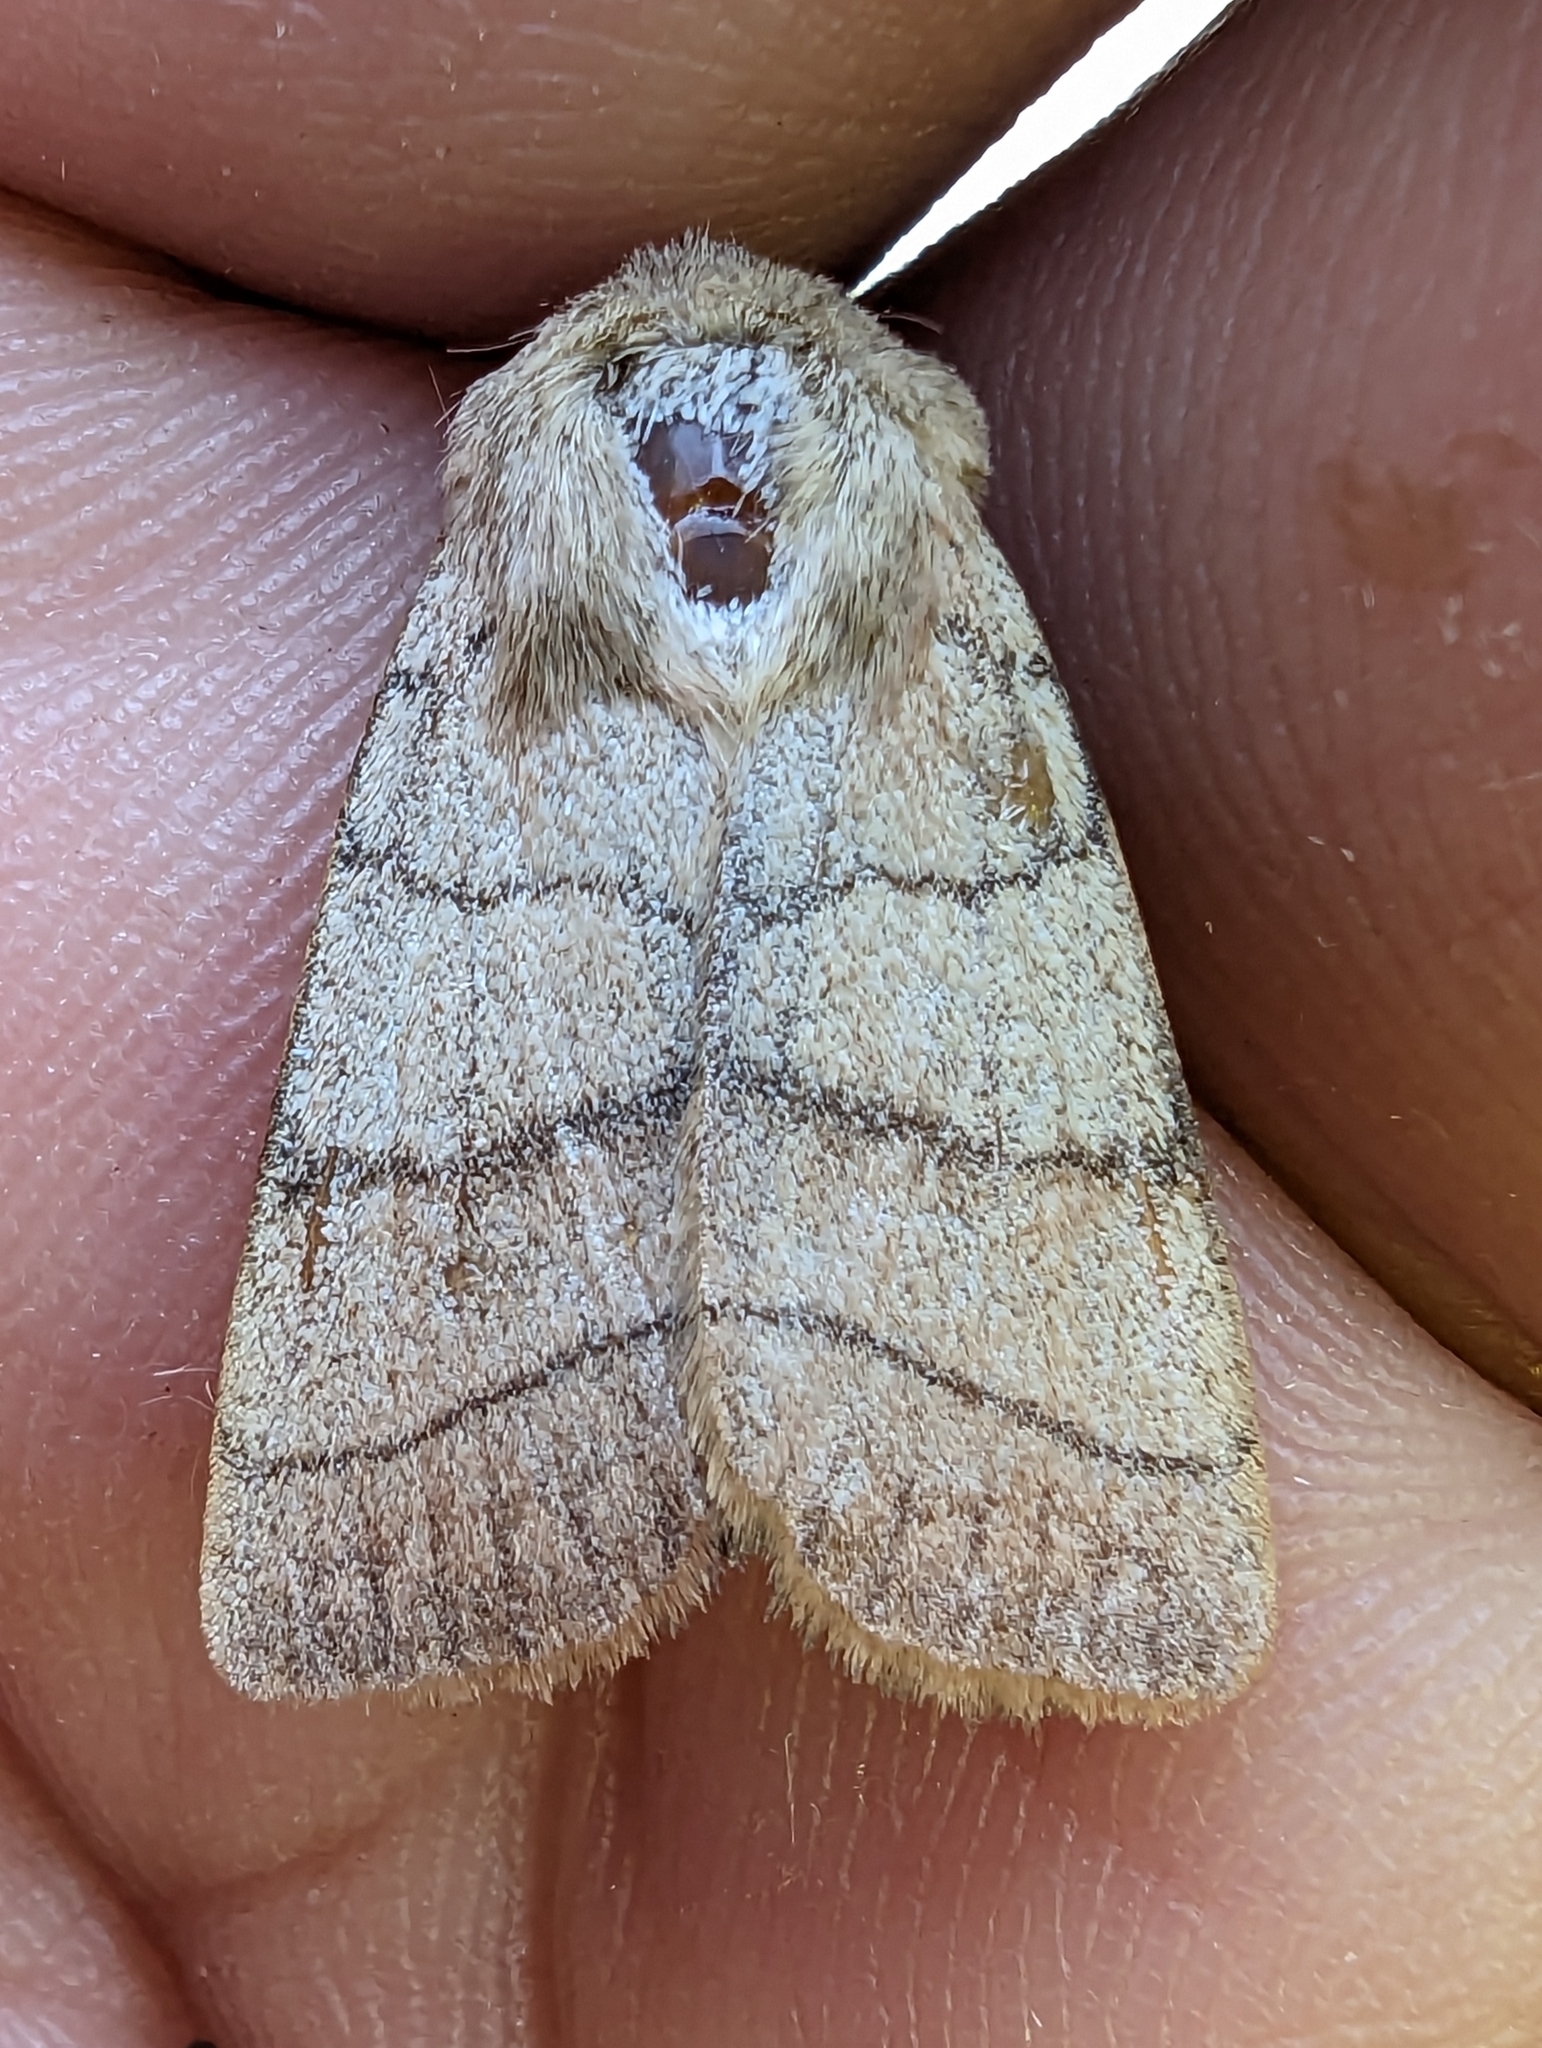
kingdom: Animalia
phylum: Arthropoda
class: Insecta
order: Lepidoptera
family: Noctuidae
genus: Charanyca
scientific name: Charanyca trigrammica
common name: Treble lines
